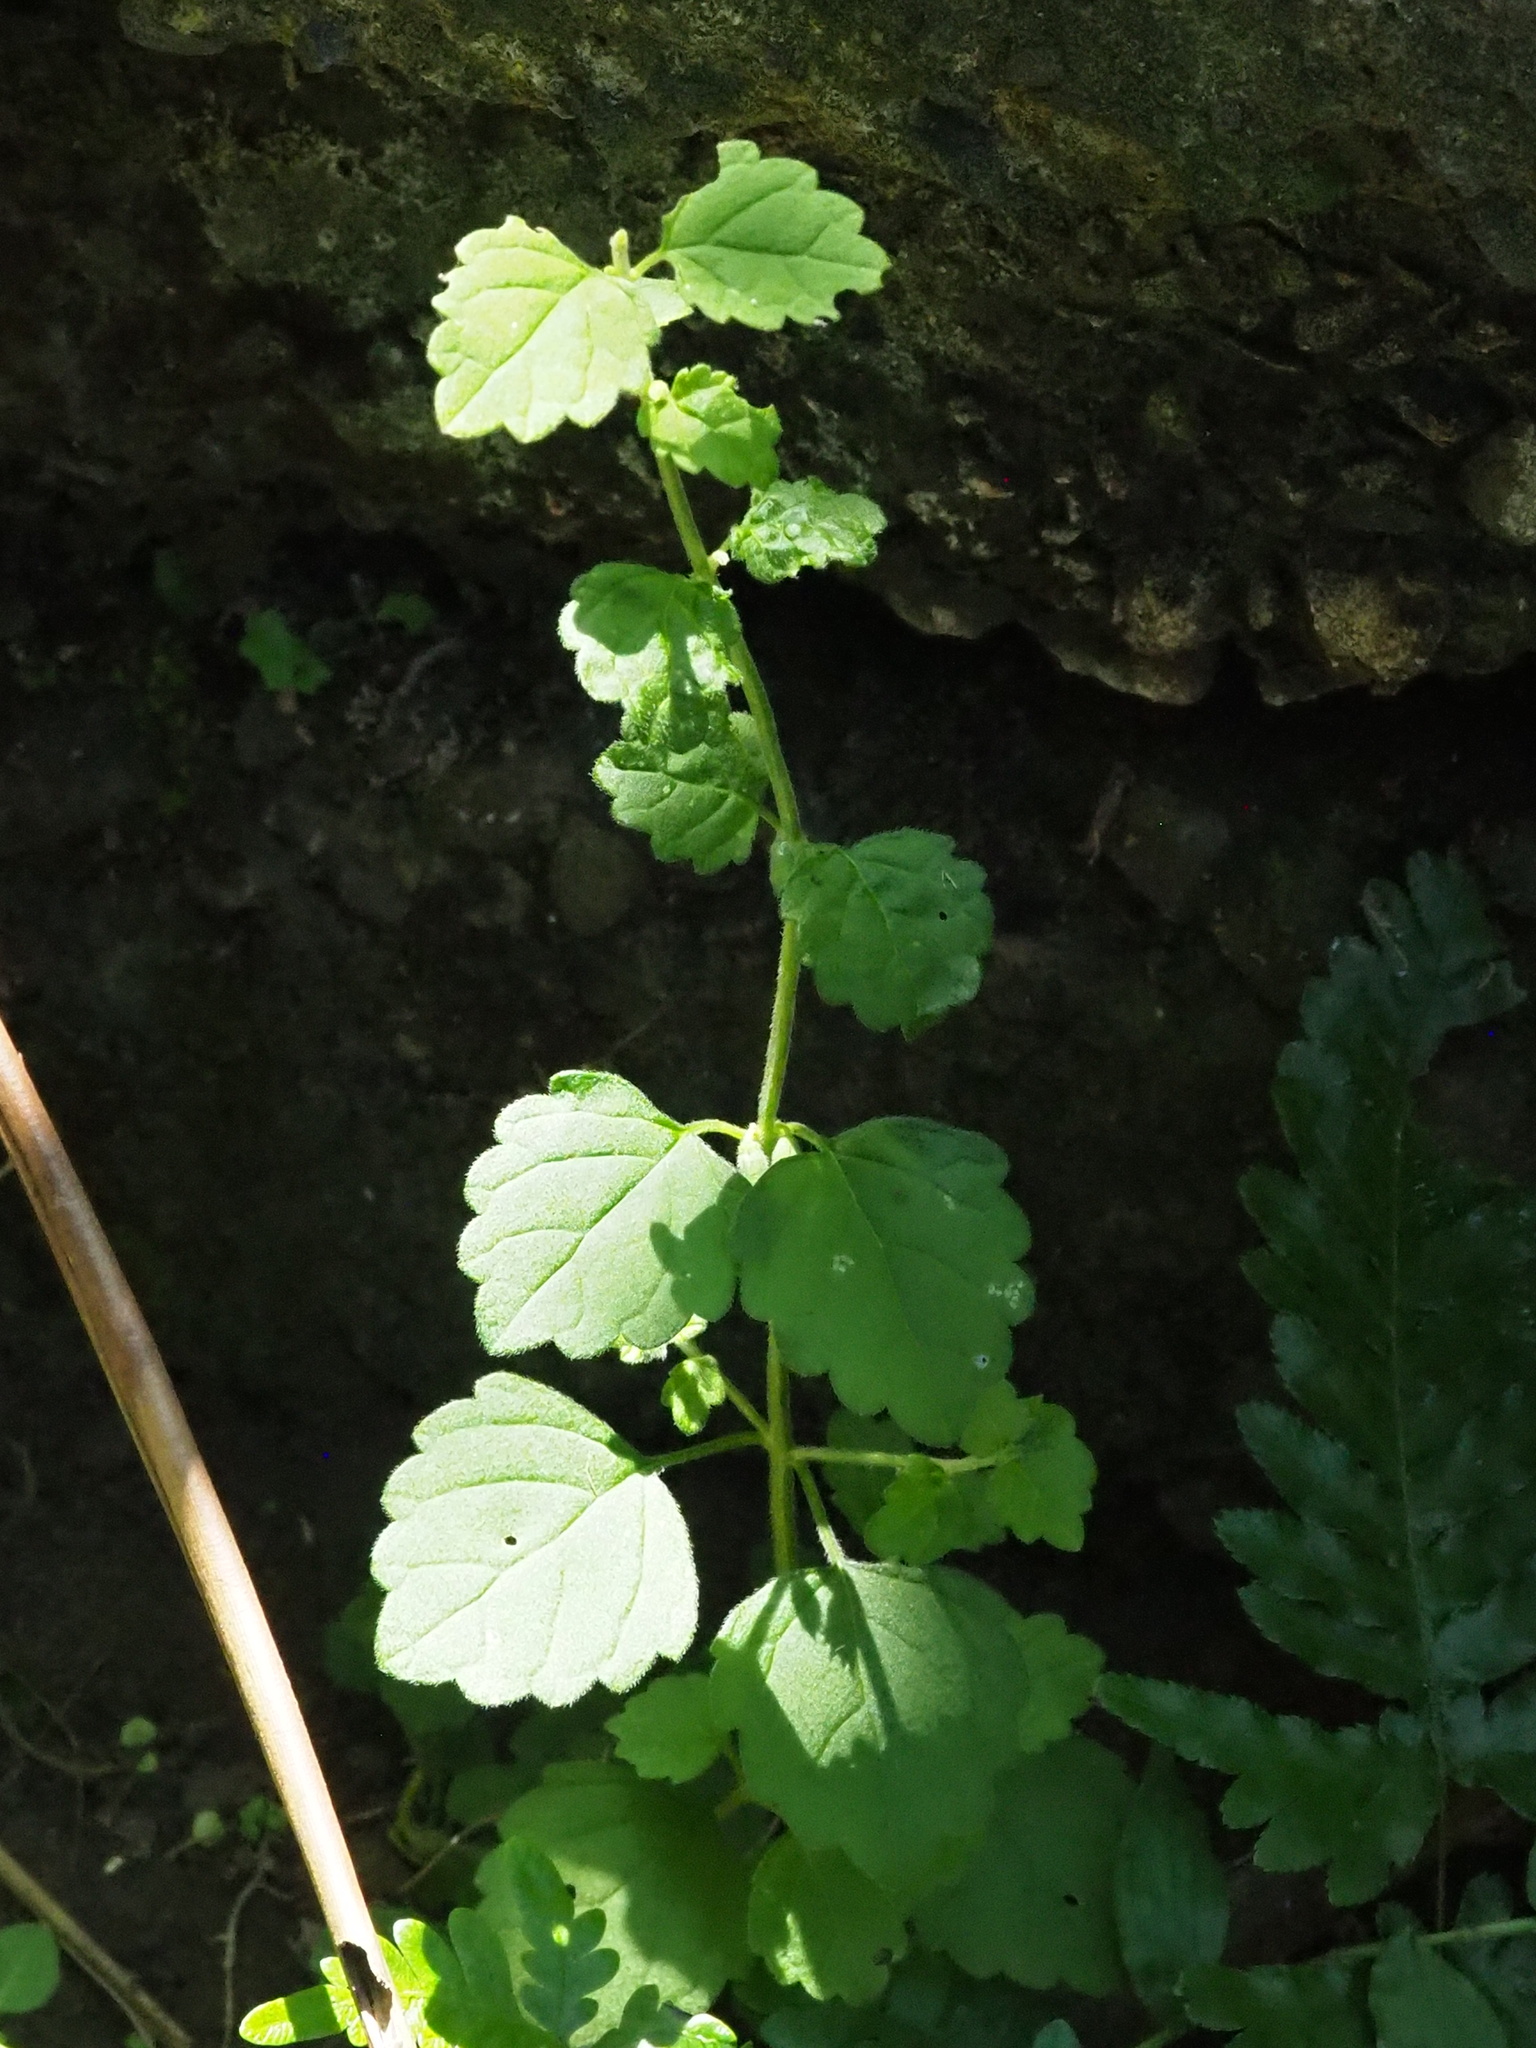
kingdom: Plantae
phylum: Tracheophyta
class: Magnoliopsida
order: Lamiales
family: Lamiaceae
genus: Leucas
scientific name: Leucas chinensis
